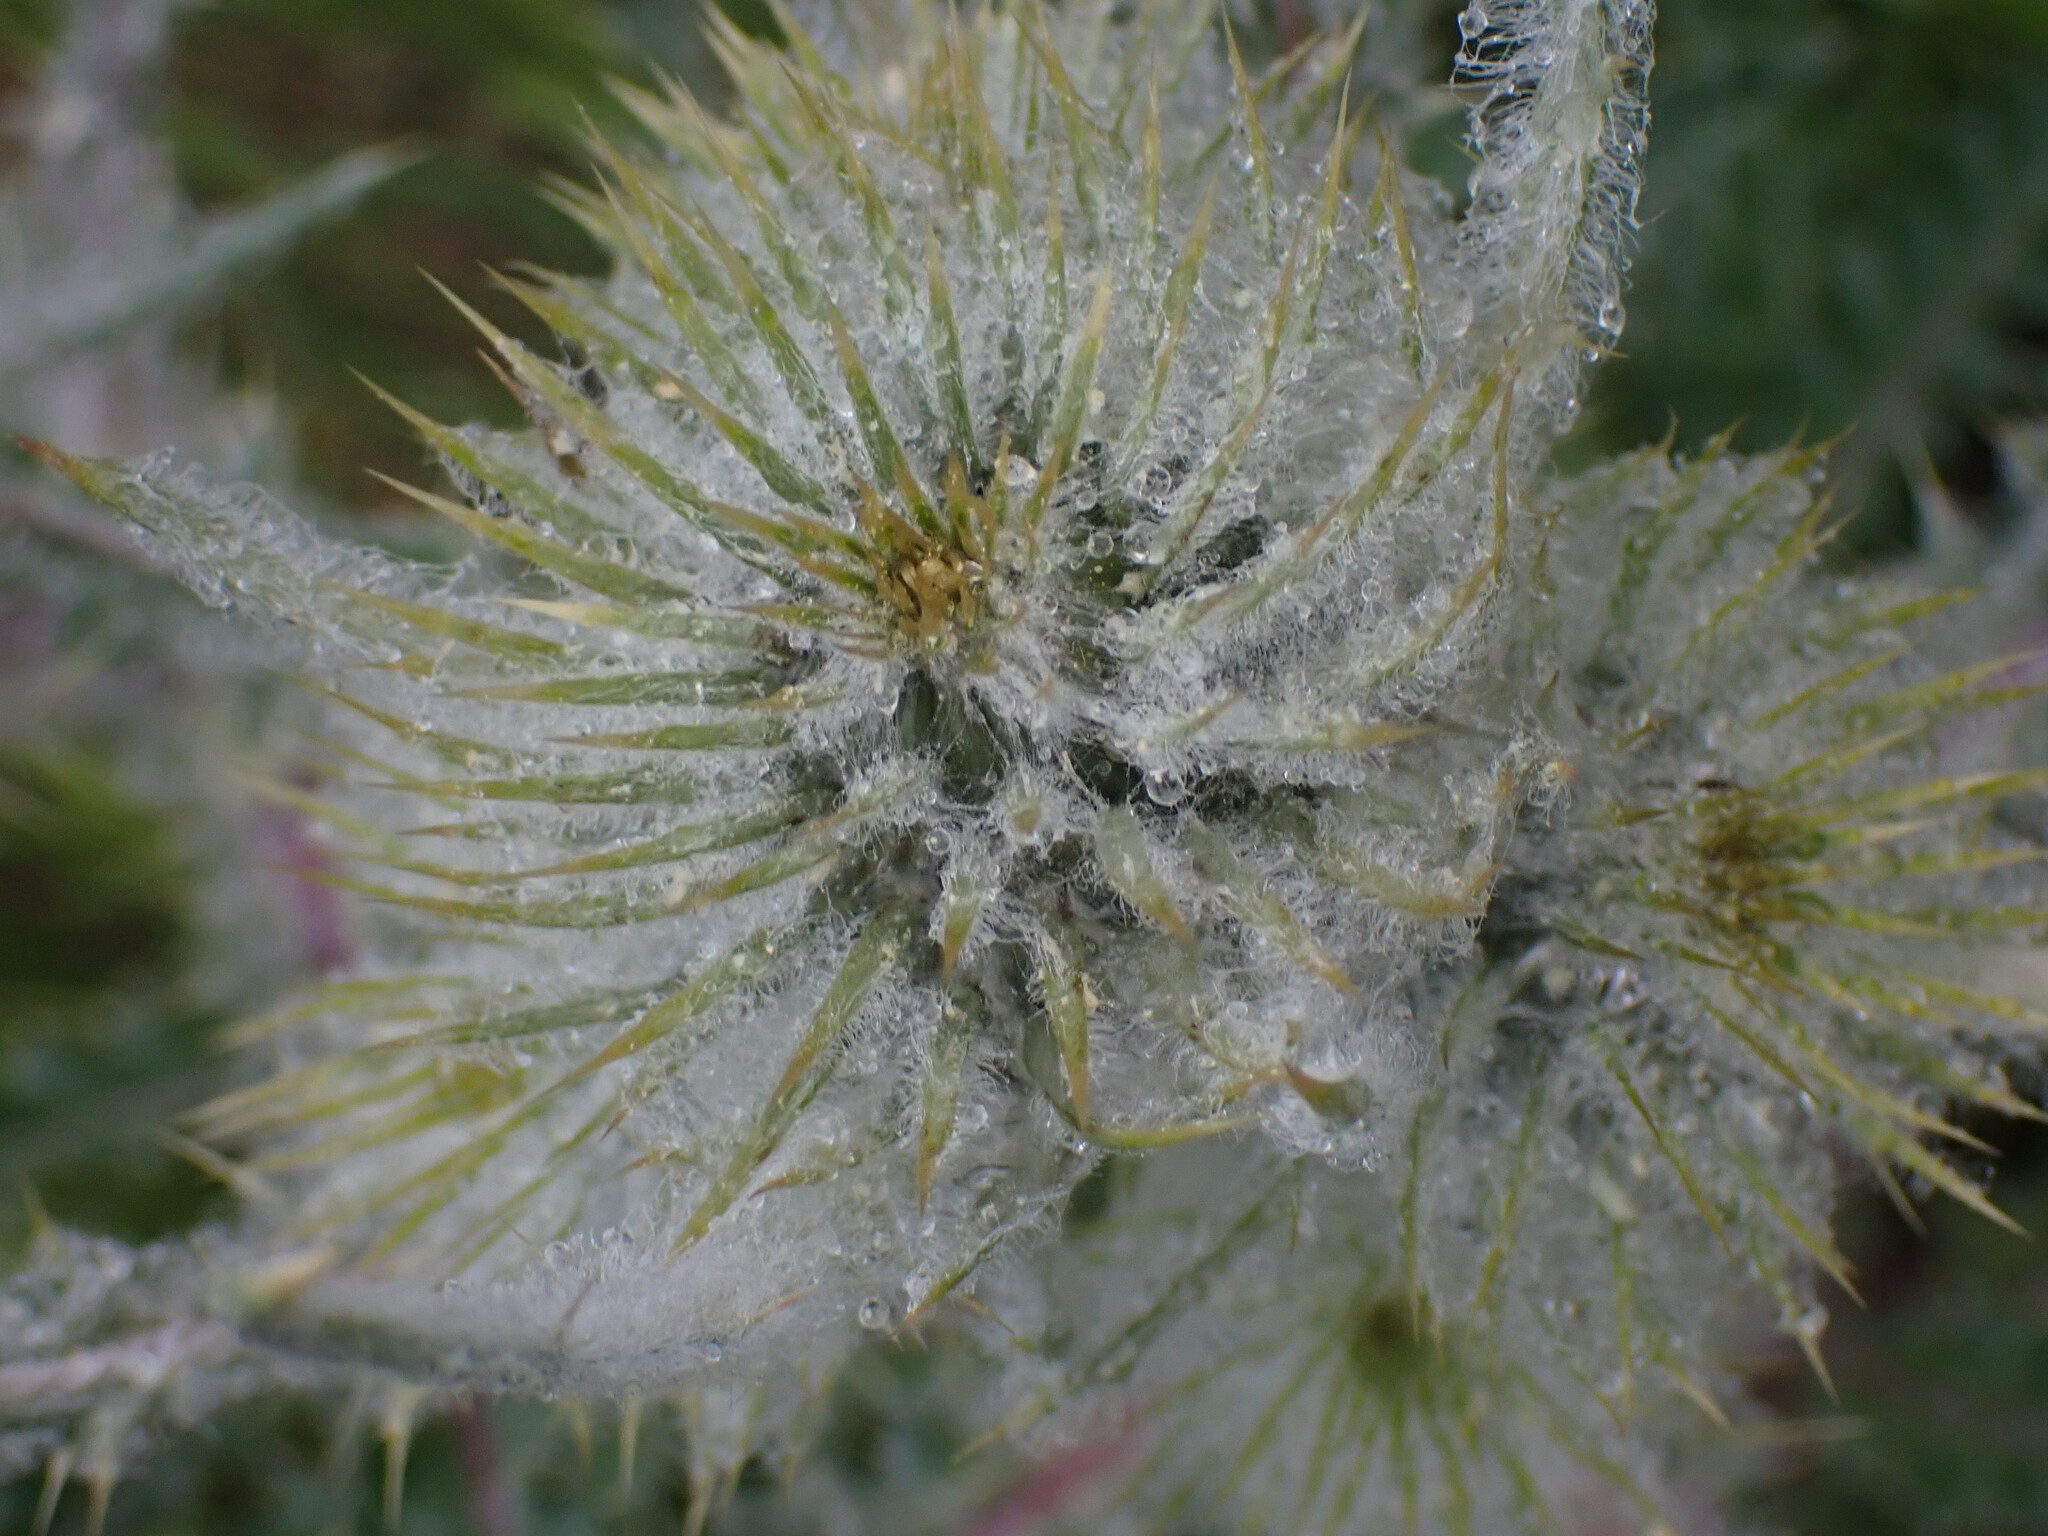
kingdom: Plantae
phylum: Tracheophyta
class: Magnoliopsida
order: Asterales
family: Asteraceae
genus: Cirsium
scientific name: Cirsium hookerianum
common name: Hooker's thistle
